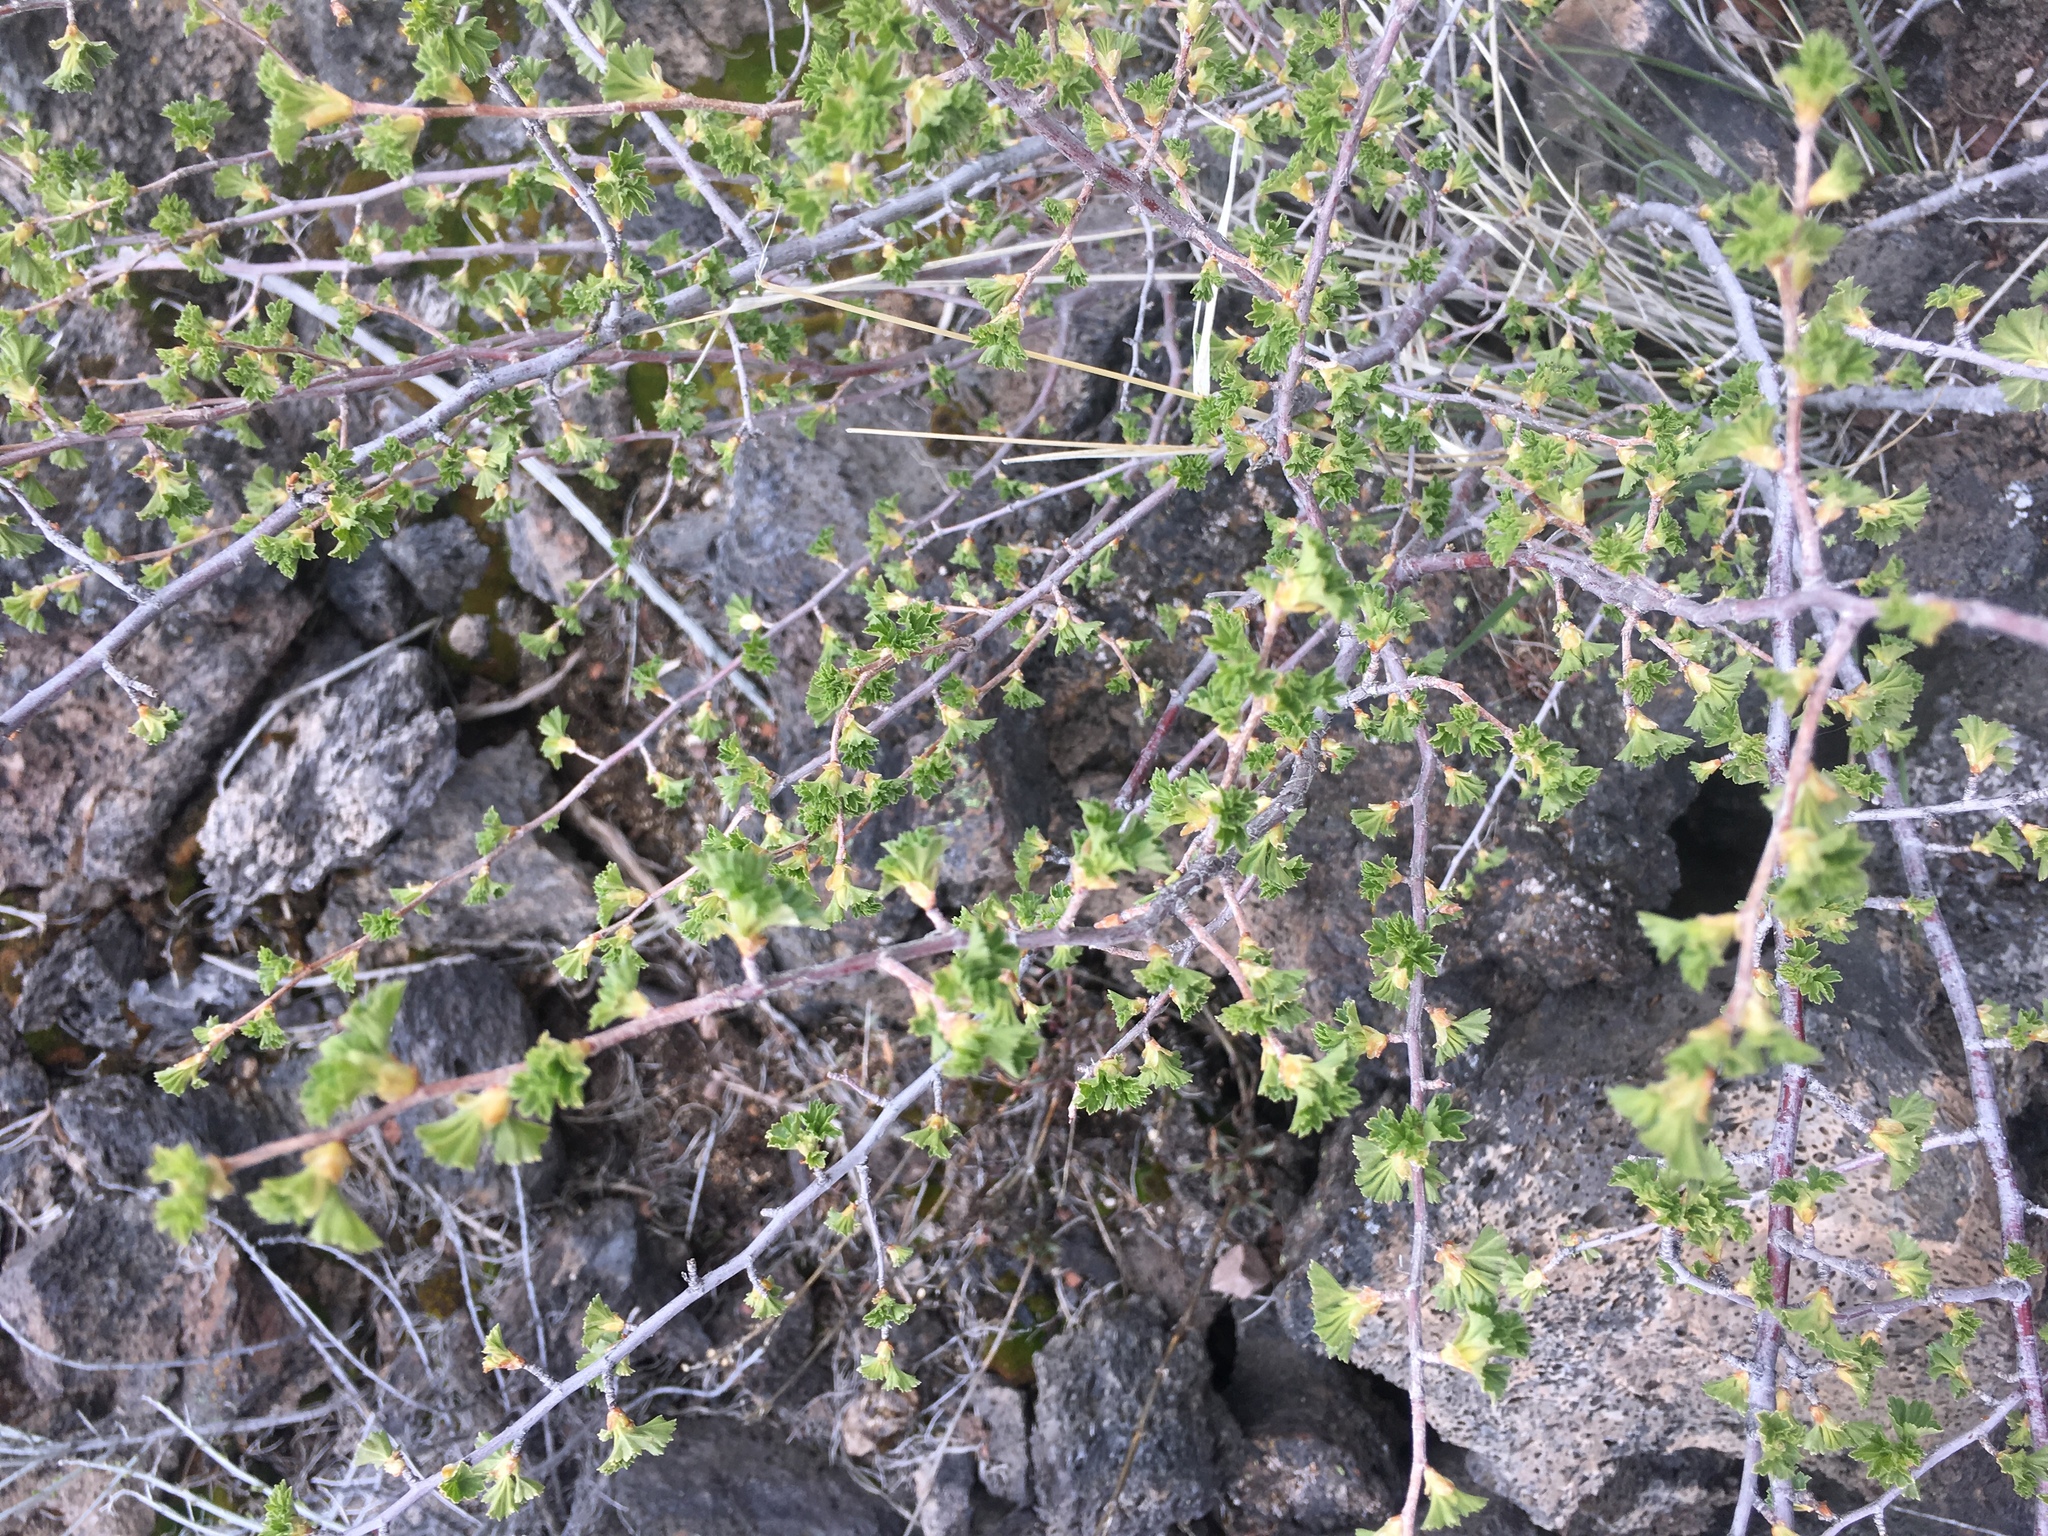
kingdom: Plantae
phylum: Tracheophyta
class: Magnoliopsida
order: Saxifragales
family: Grossulariaceae
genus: Ribes
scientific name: Ribes cereum
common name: Wax currant
